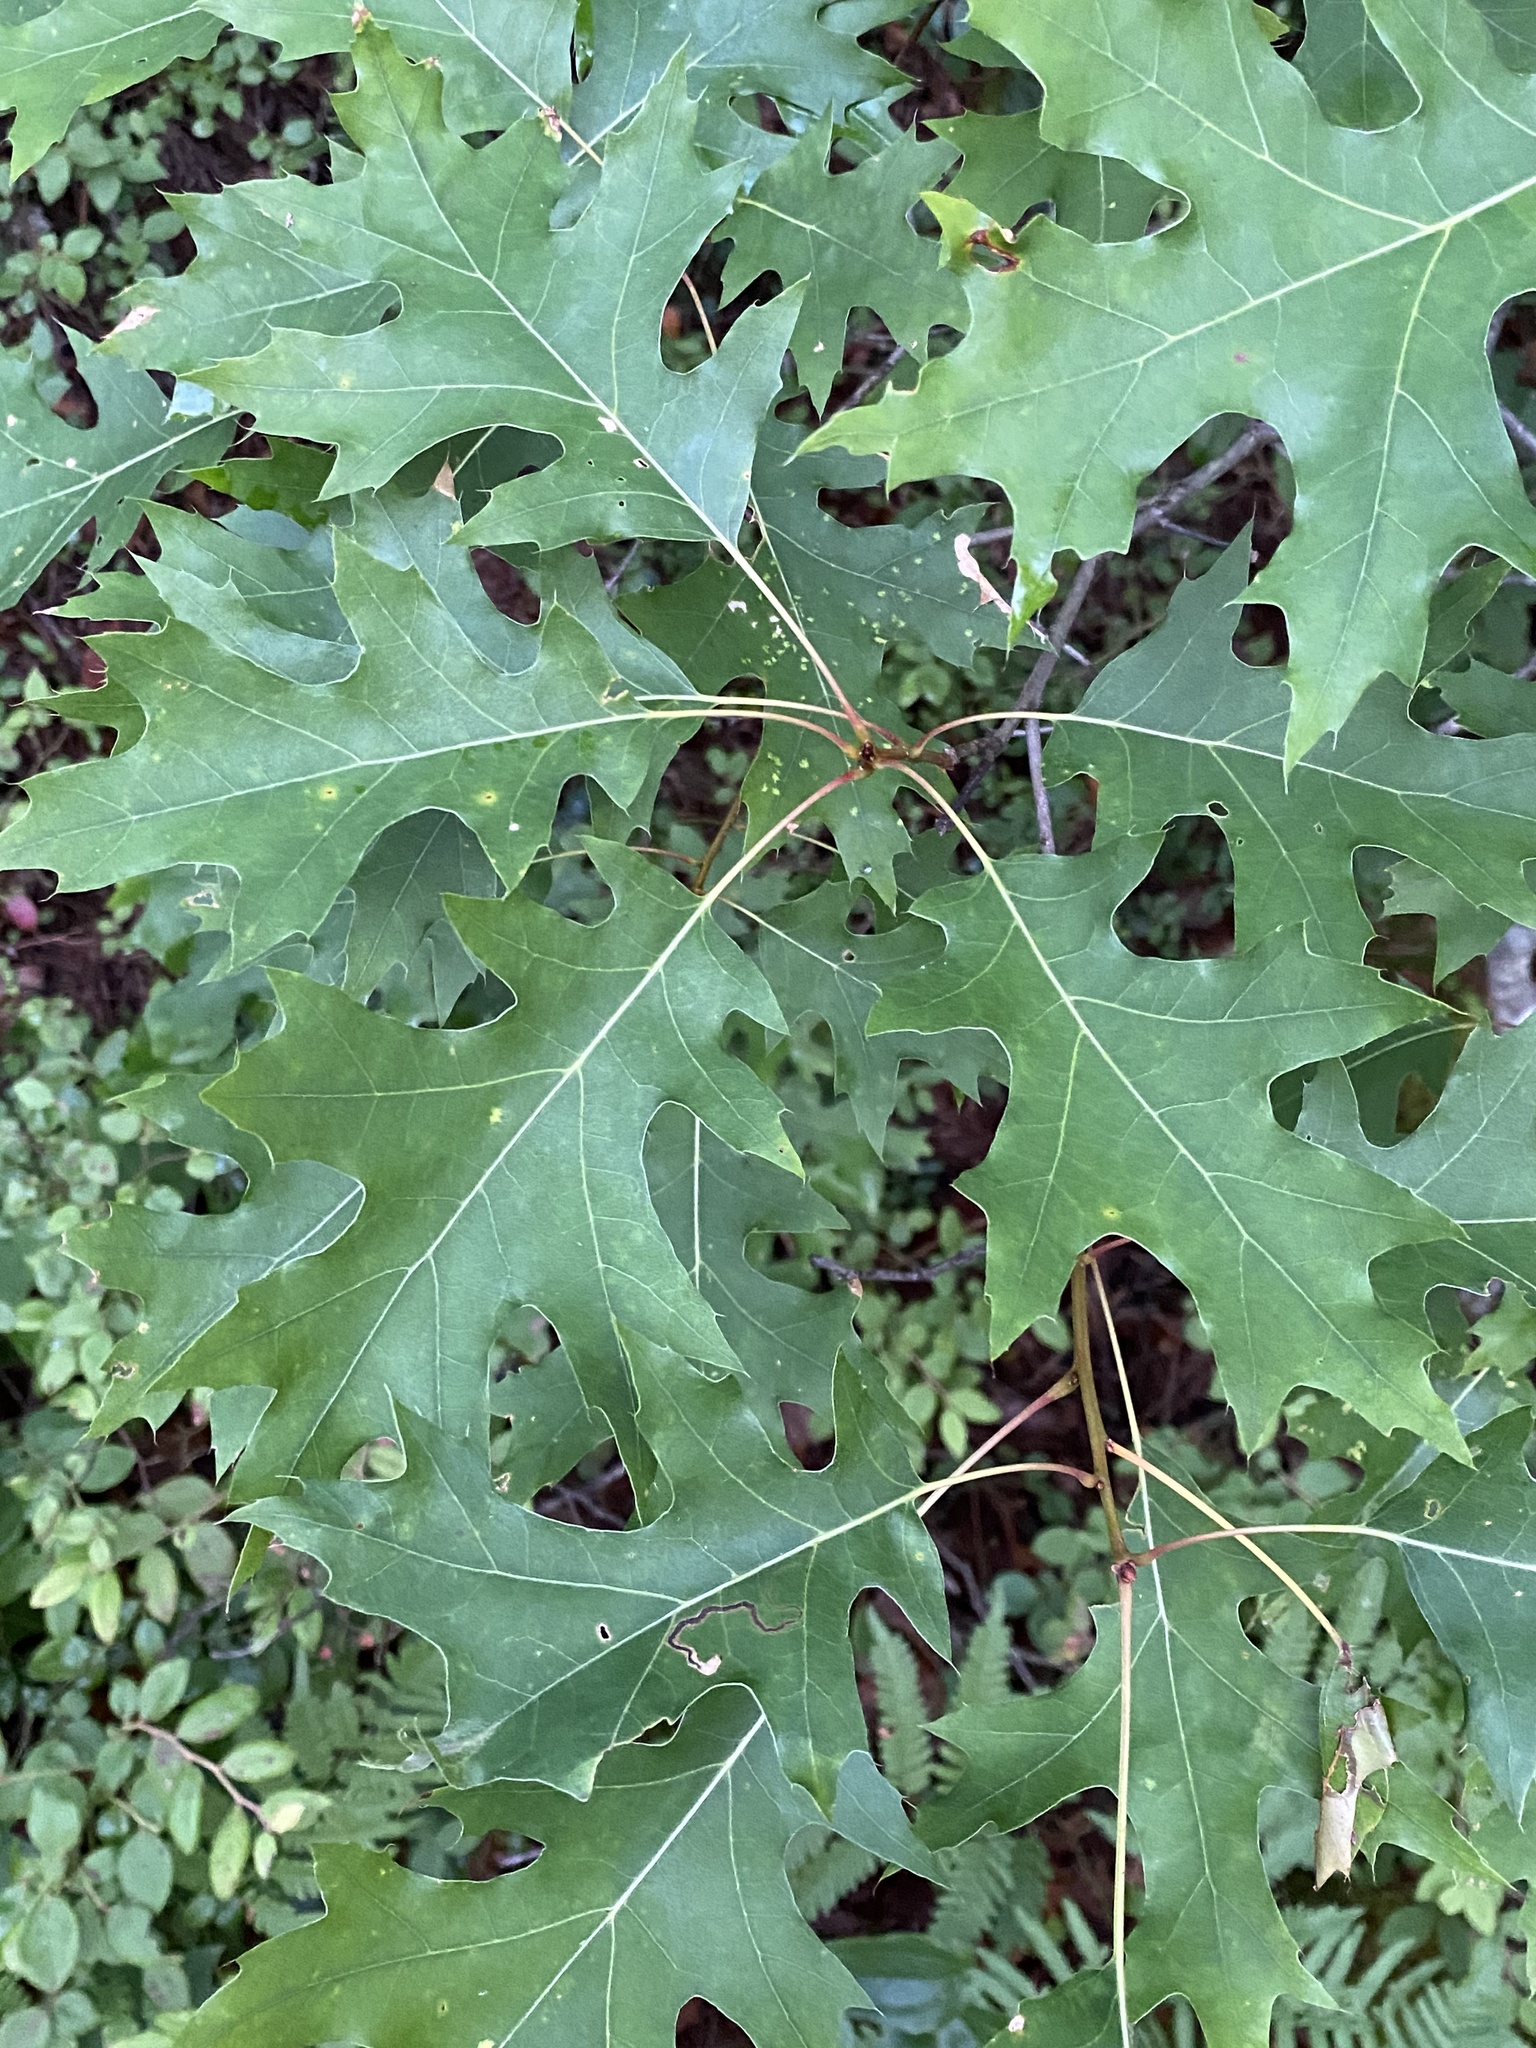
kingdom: Plantae
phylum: Tracheophyta
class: Magnoliopsida
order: Fagales
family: Fagaceae
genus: Quercus
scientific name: Quercus rubra
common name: Red oak
